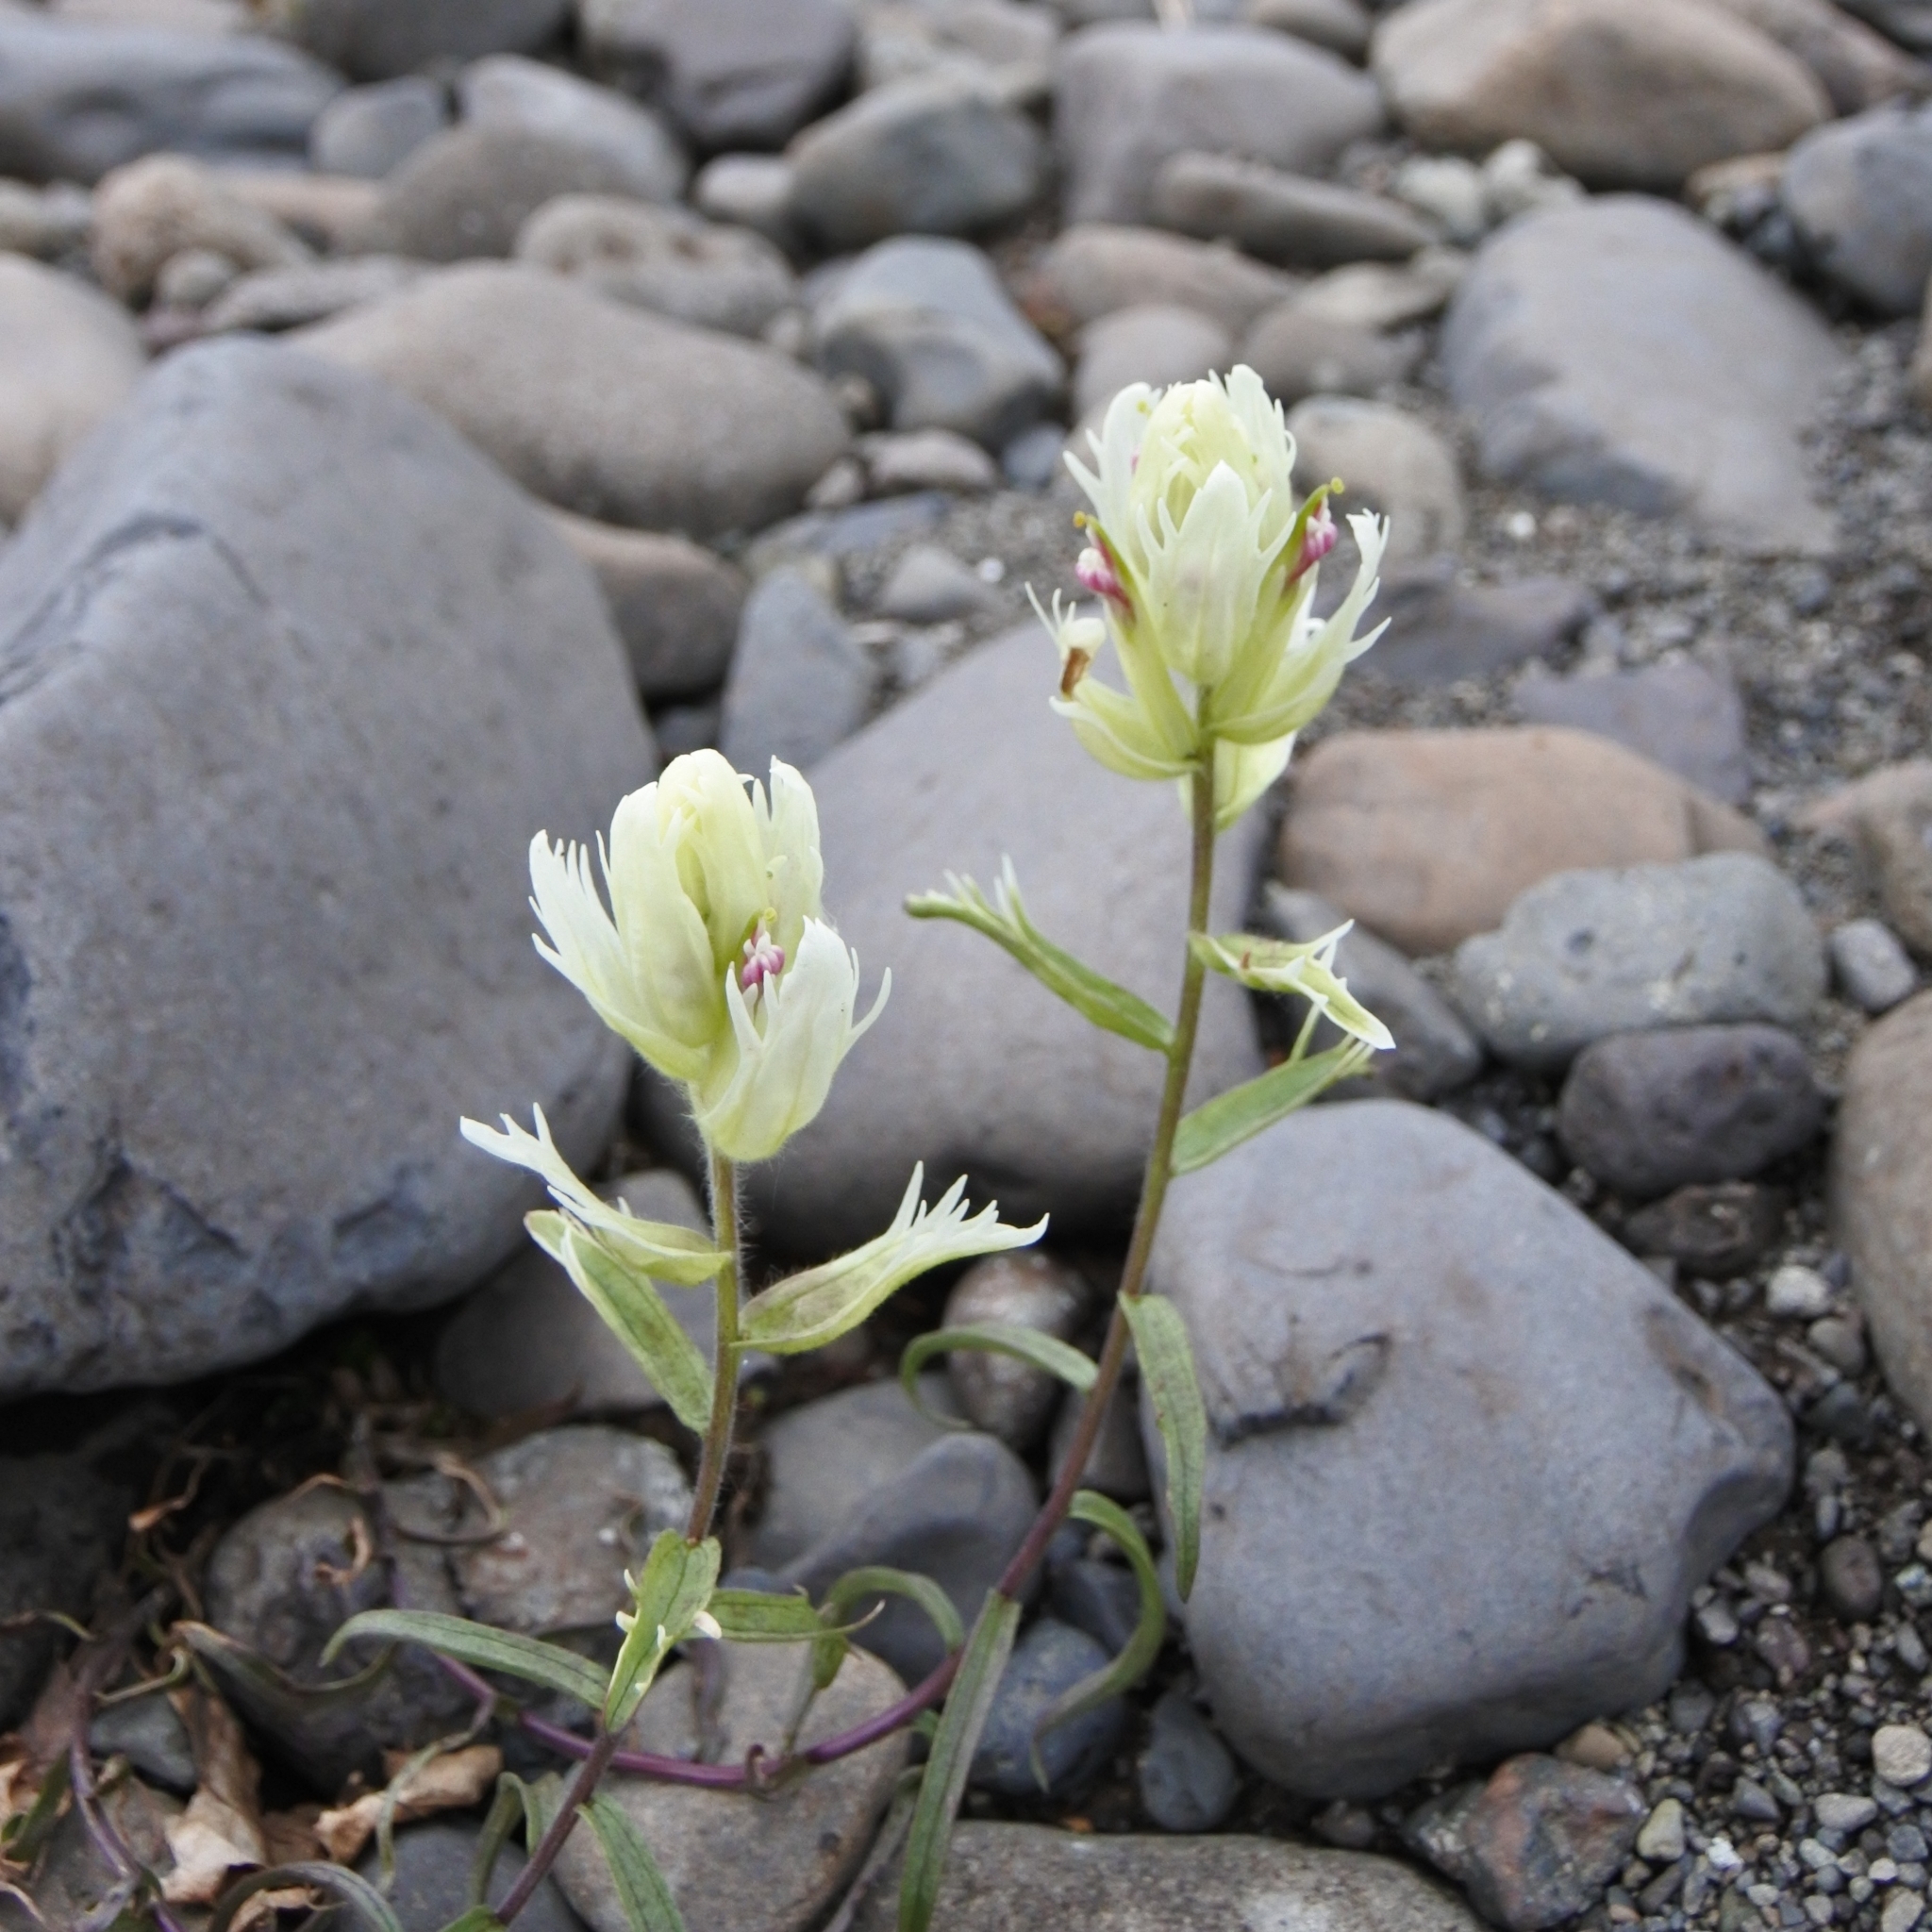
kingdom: Plantae
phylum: Tracheophyta
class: Magnoliopsida
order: Lamiales
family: Orobanchaceae
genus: Castilleja
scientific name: Castilleja pallida
